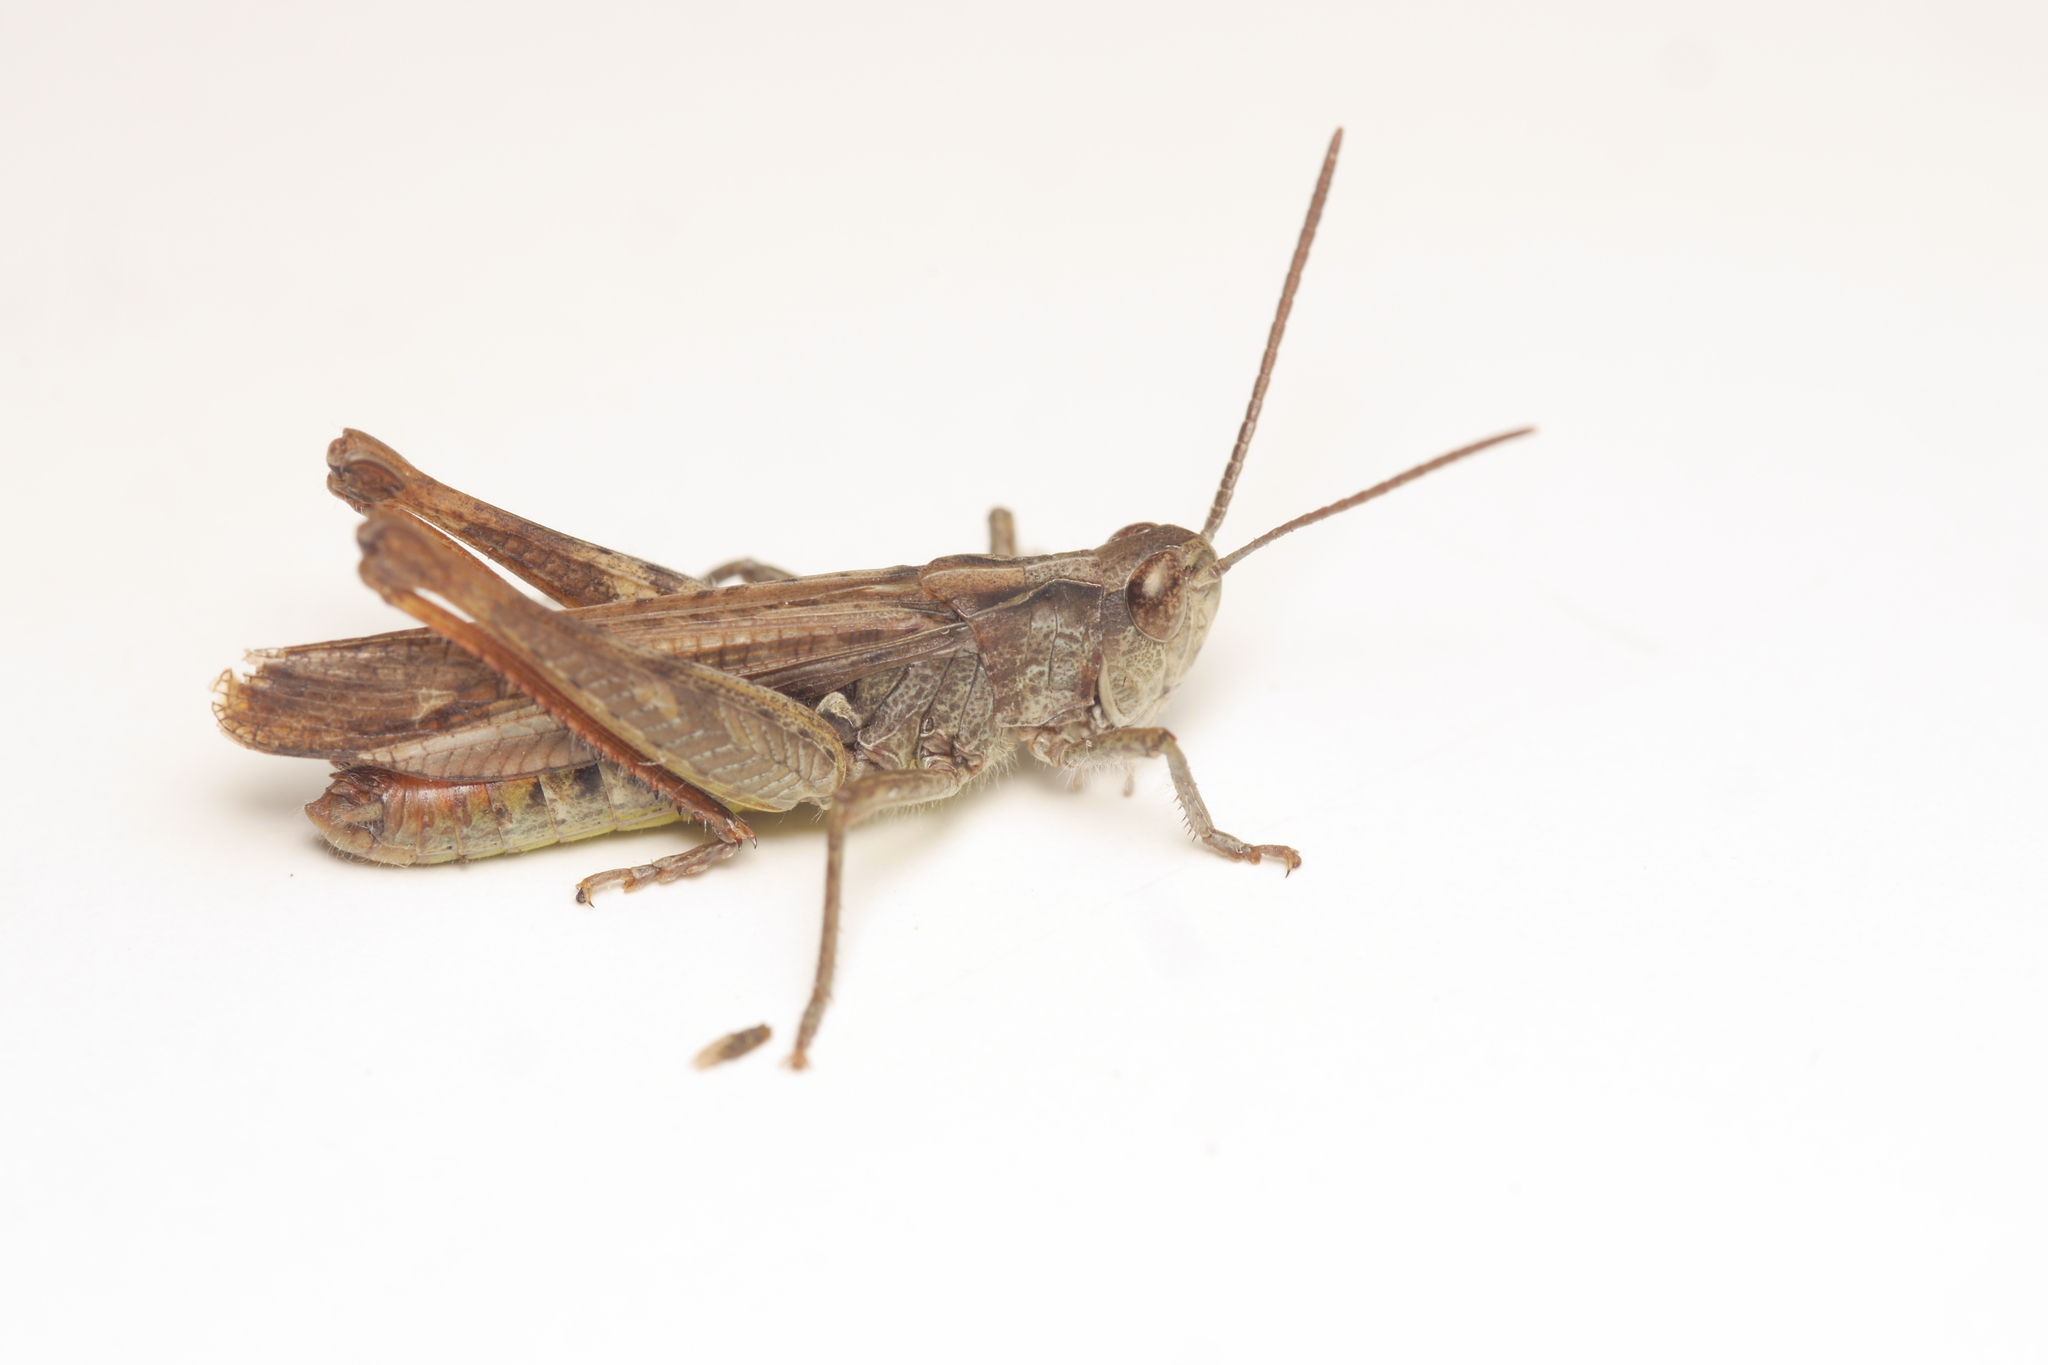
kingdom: Animalia
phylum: Arthropoda
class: Insecta
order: Orthoptera
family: Acrididae
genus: Chorthippus
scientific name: Chorthippus biguttulus
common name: Bow-winged grasshopper
